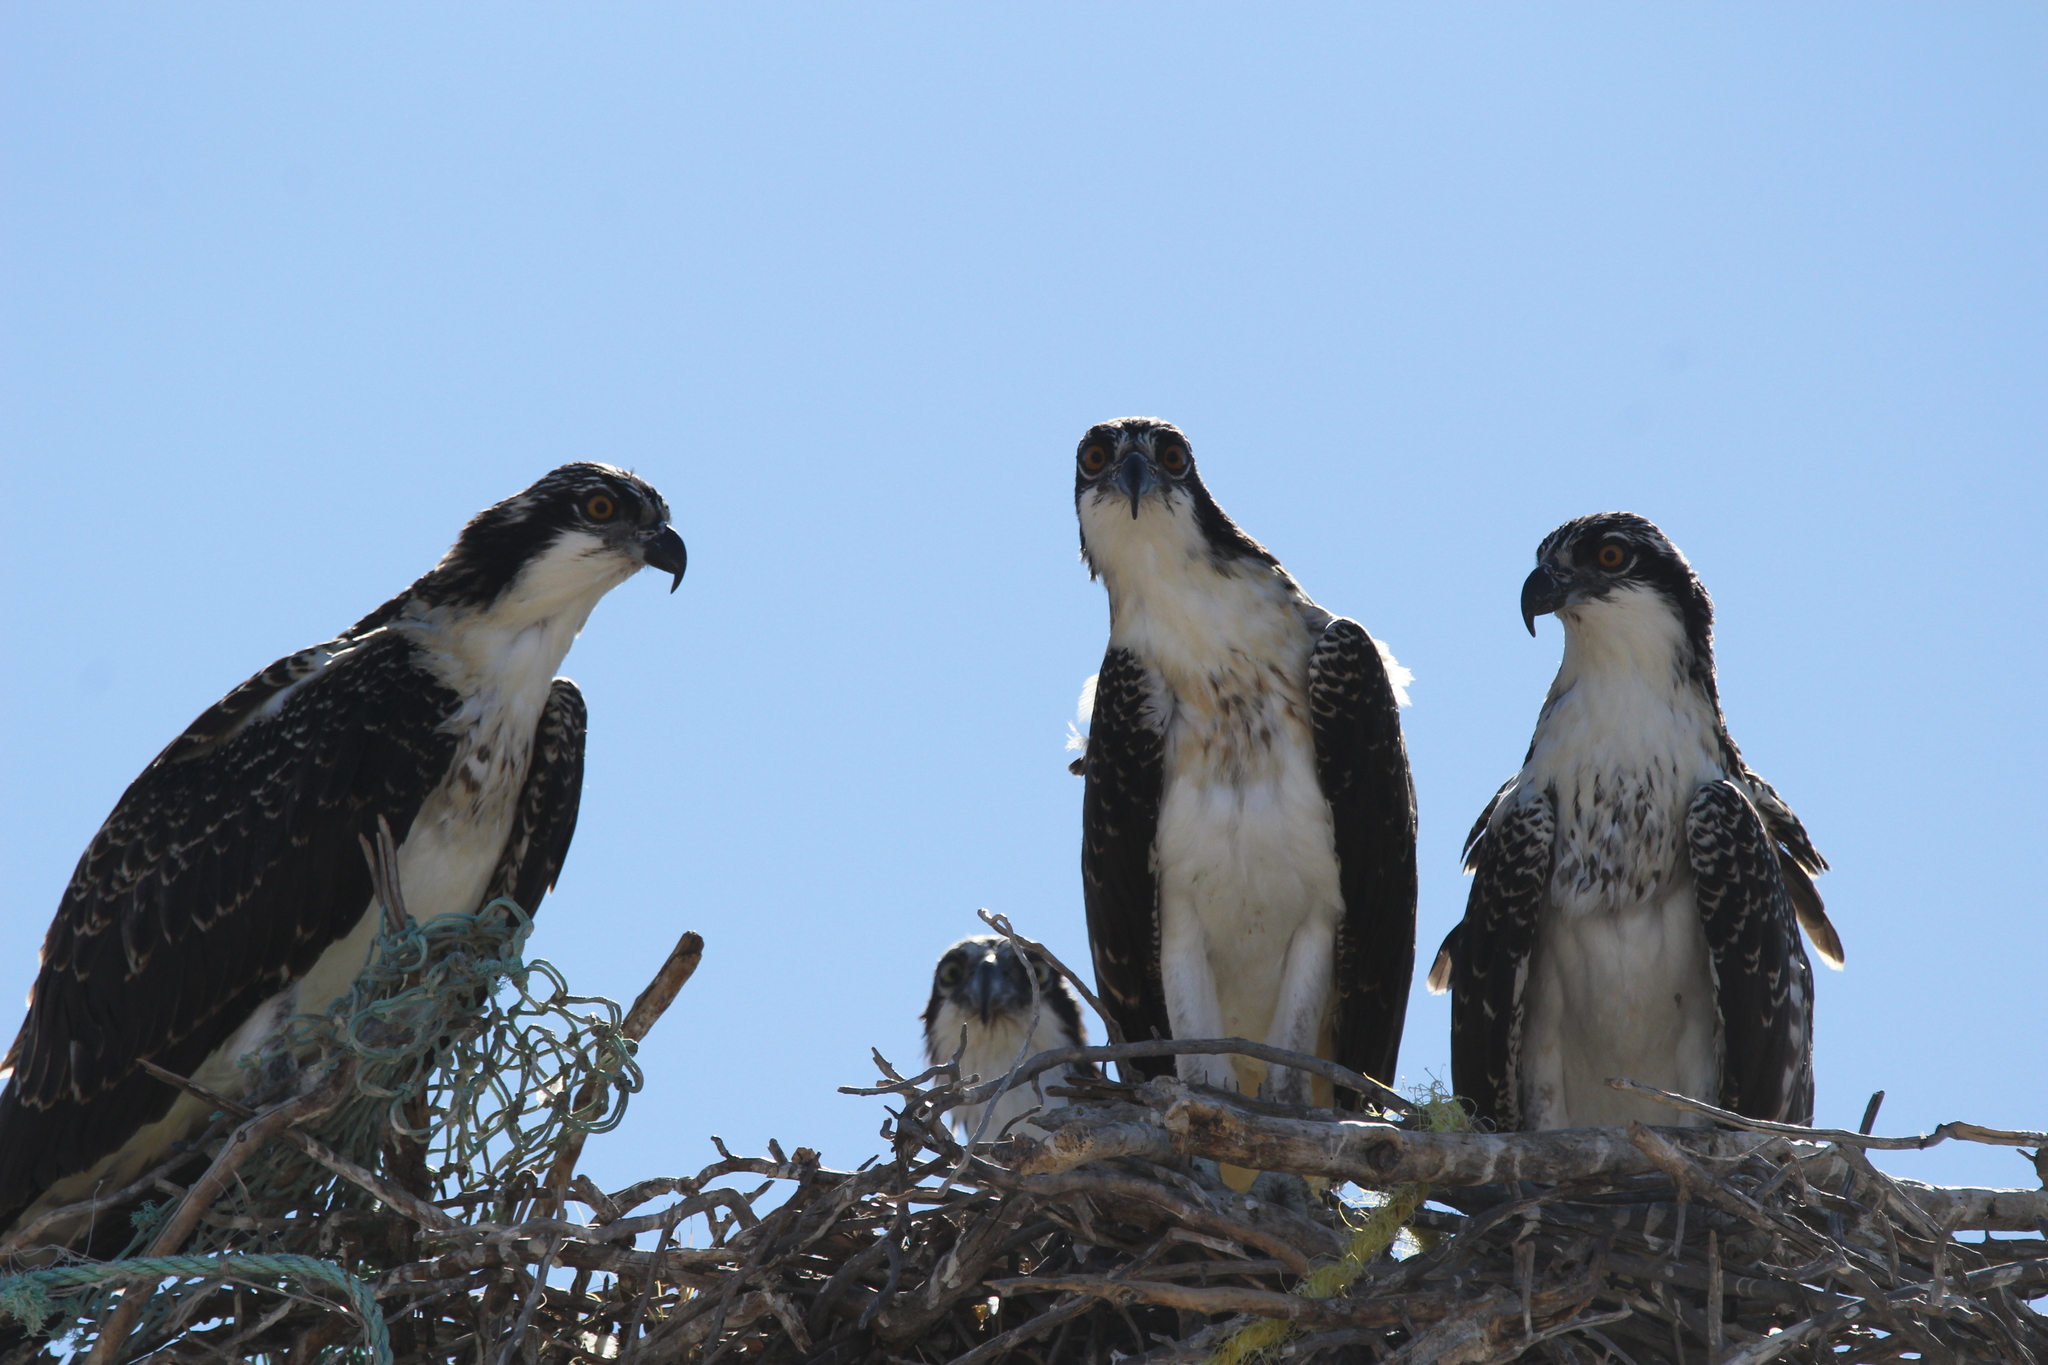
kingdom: Animalia
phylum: Chordata
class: Aves
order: Accipitriformes
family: Pandionidae
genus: Pandion
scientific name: Pandion haliaetus
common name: Osprey
